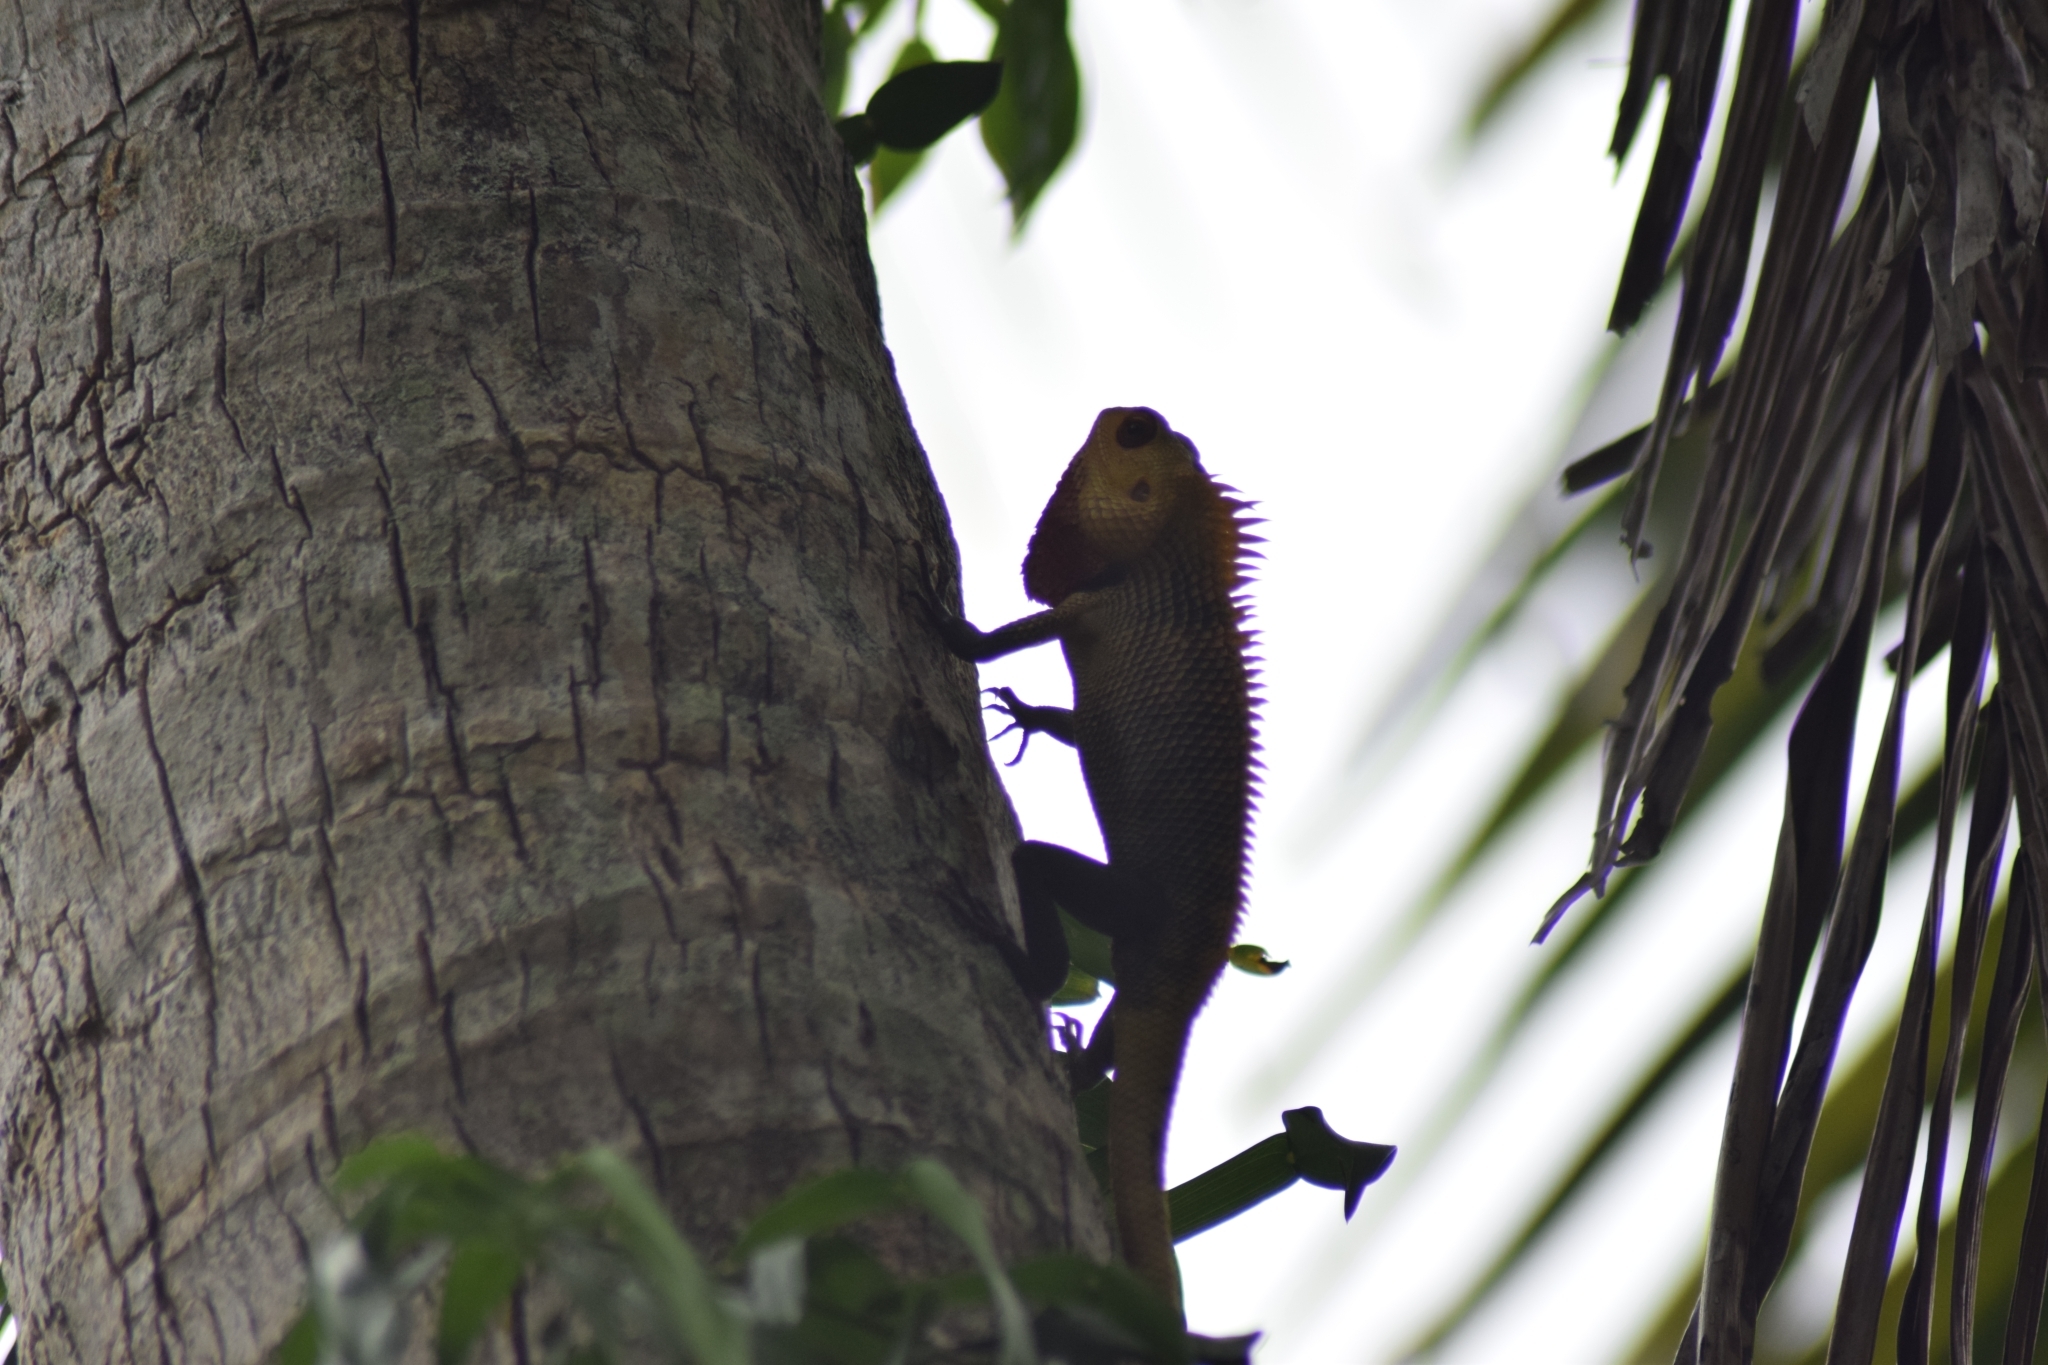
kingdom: Animalia
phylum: Chordata
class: Squamata
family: Agamidae
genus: Calotes
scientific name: Calotes versicolor
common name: Oriental garden lizard
